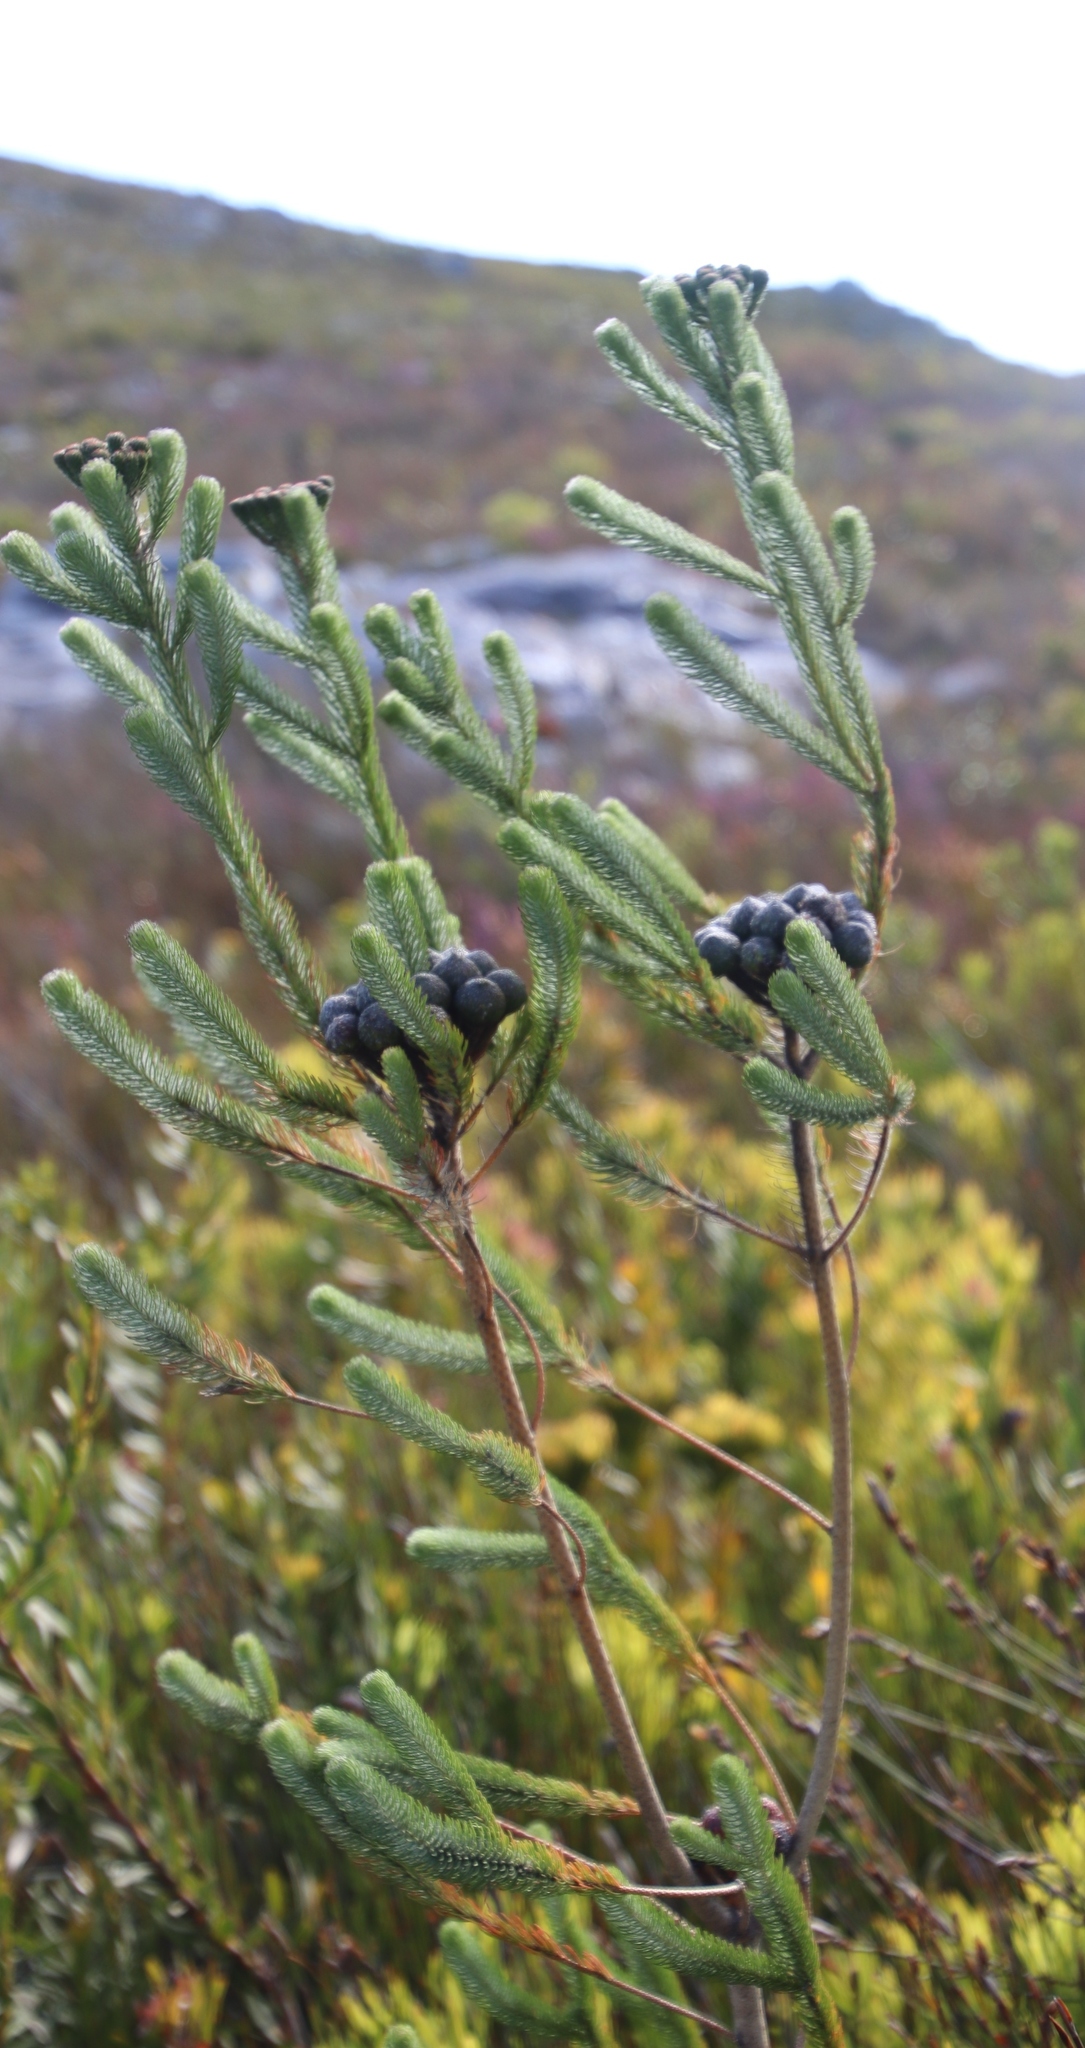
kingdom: Plantae
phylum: Tracheophyta
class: Magnoliopsida
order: Bruniales
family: Bruniaceae
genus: Berzelia
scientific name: Berzelia albiflora
